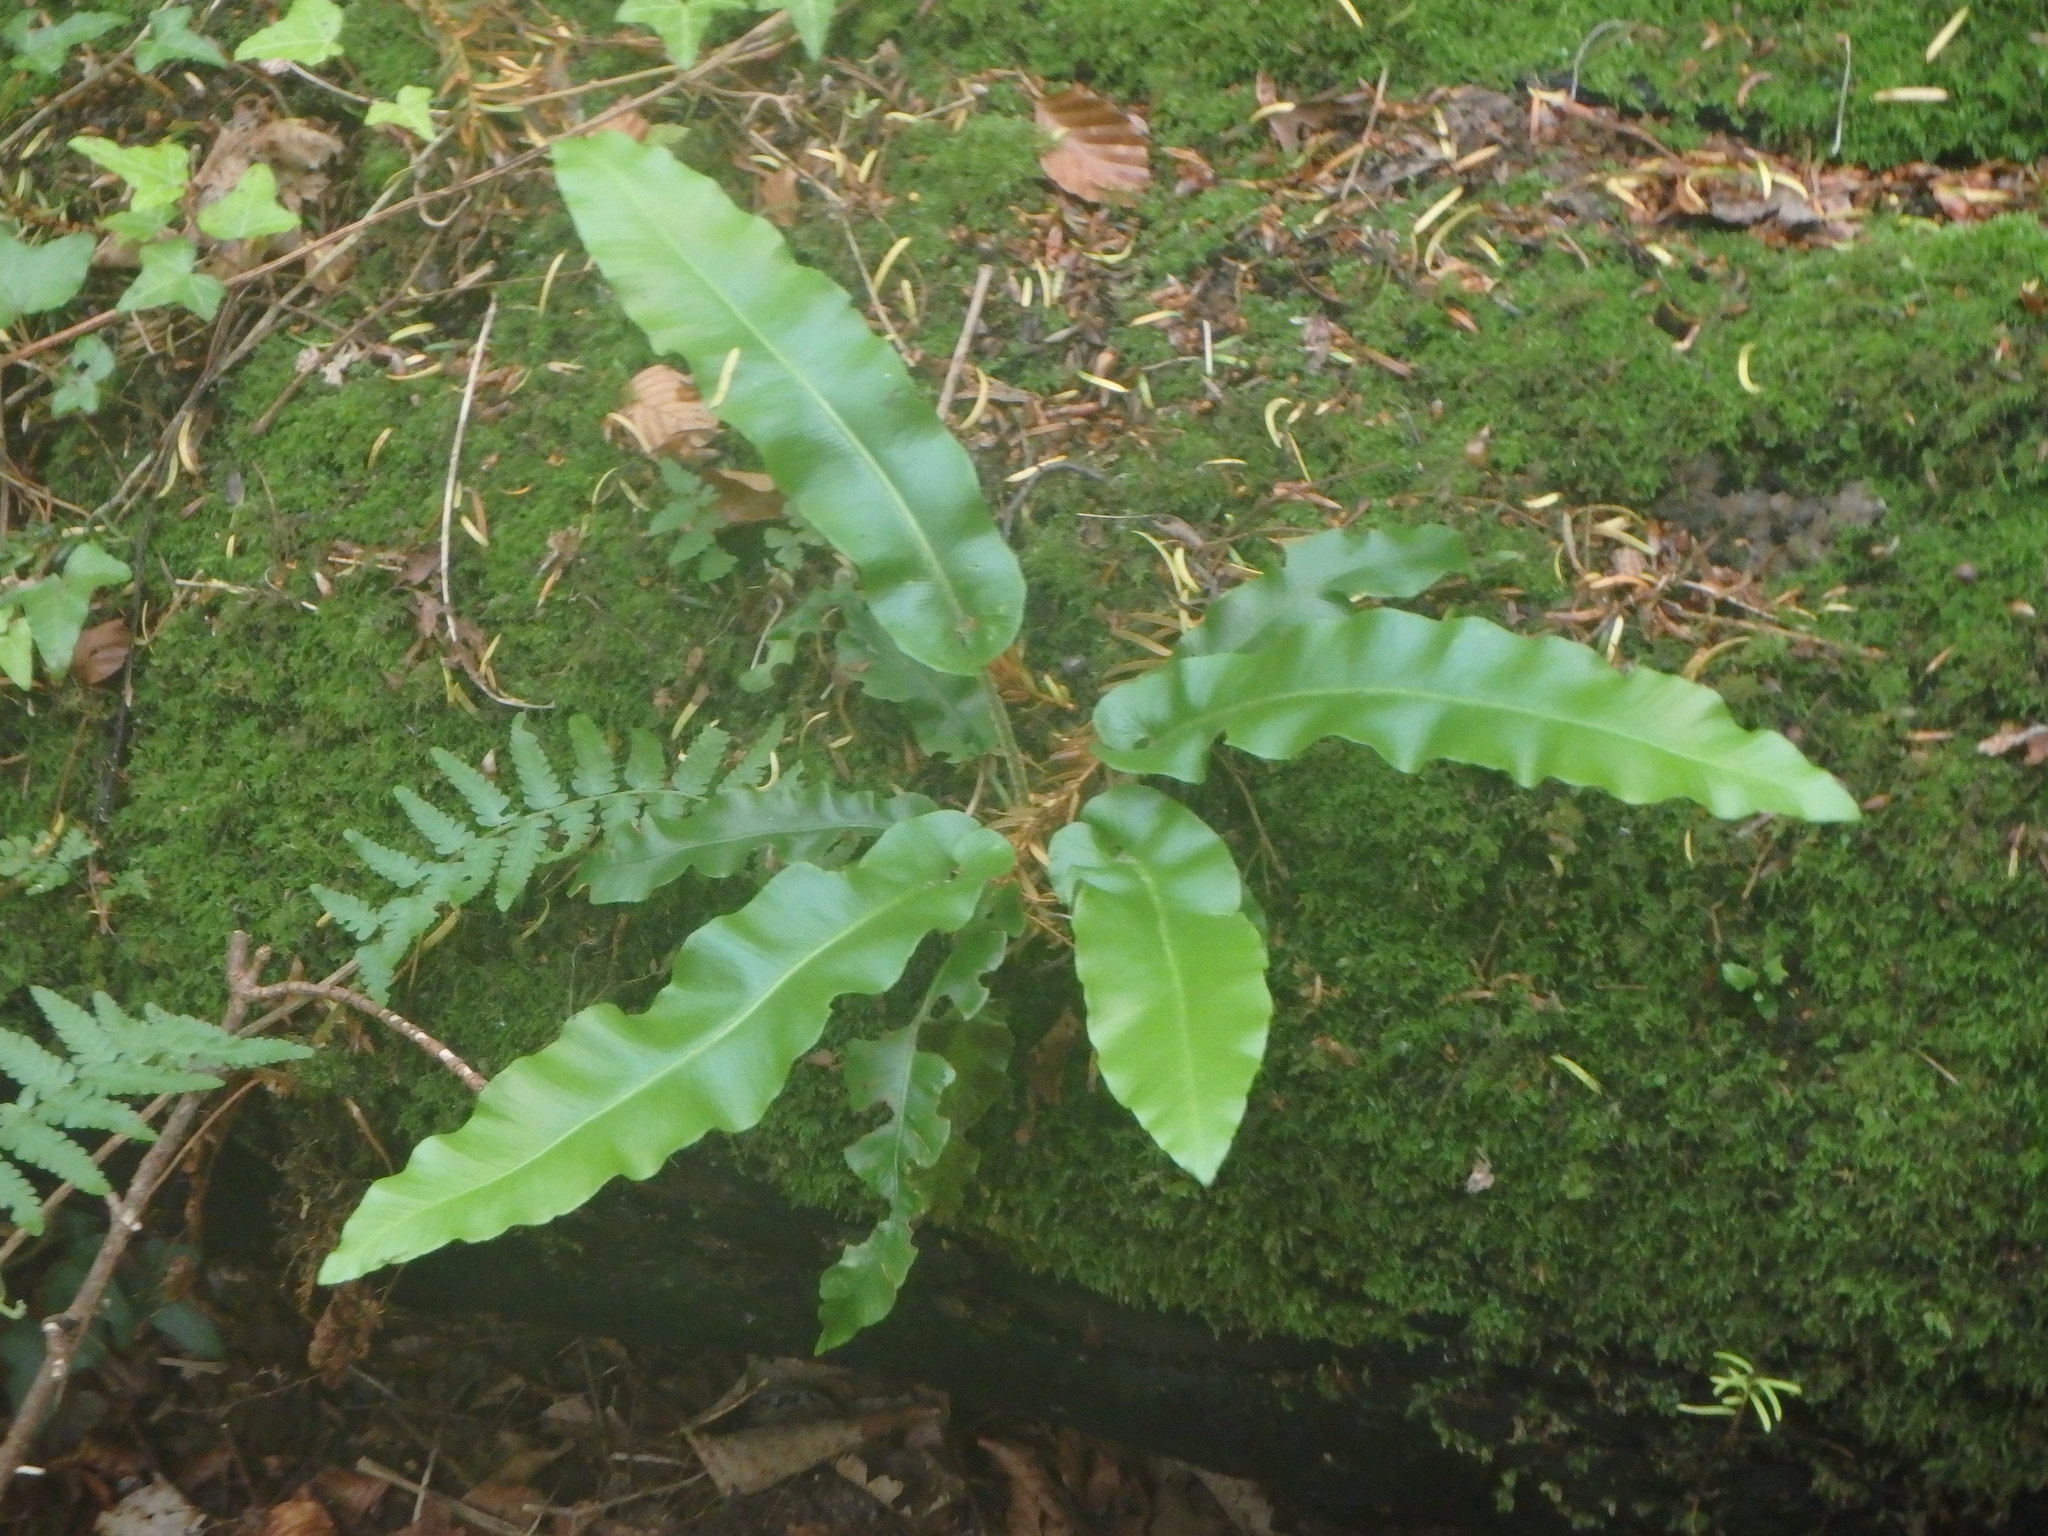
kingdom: Plantae
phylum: Tracheophyta
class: Polypodiopsida
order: Polypodiales
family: Aspleniaceae
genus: Asplenium
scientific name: Asplenium scolopendrium
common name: Hart's-tongue fern
